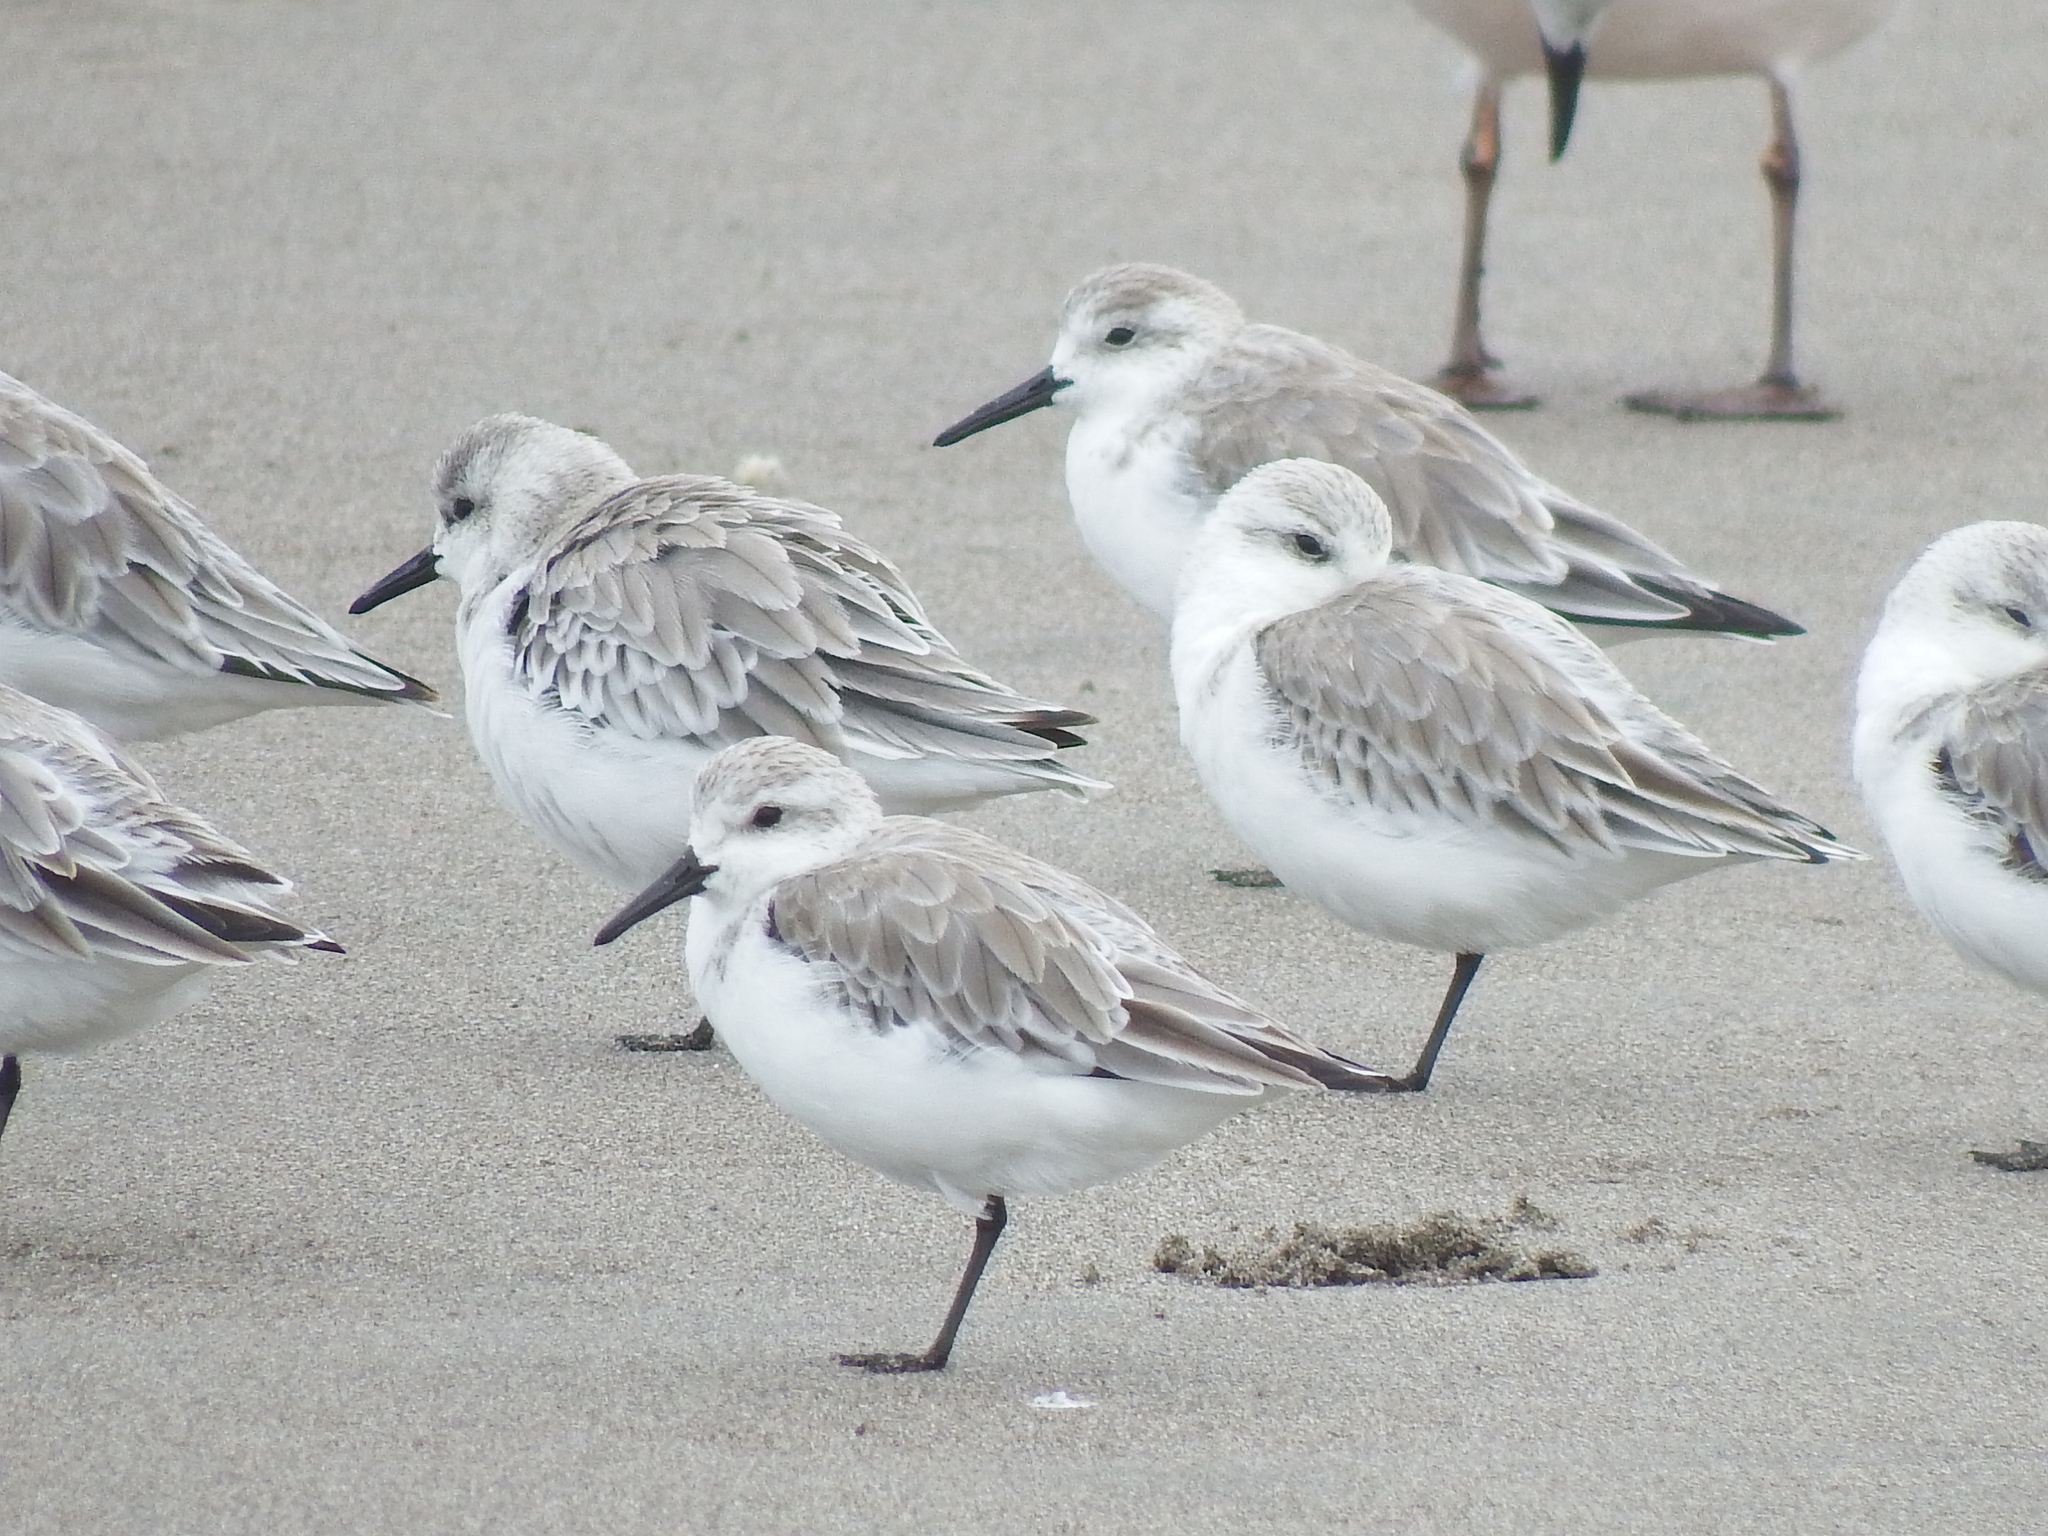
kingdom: Animalia
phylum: Chordata
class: Aves
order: Charadriiformes
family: Scolopacidae
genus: Calidris
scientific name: Calidris alba
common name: Sanderling
